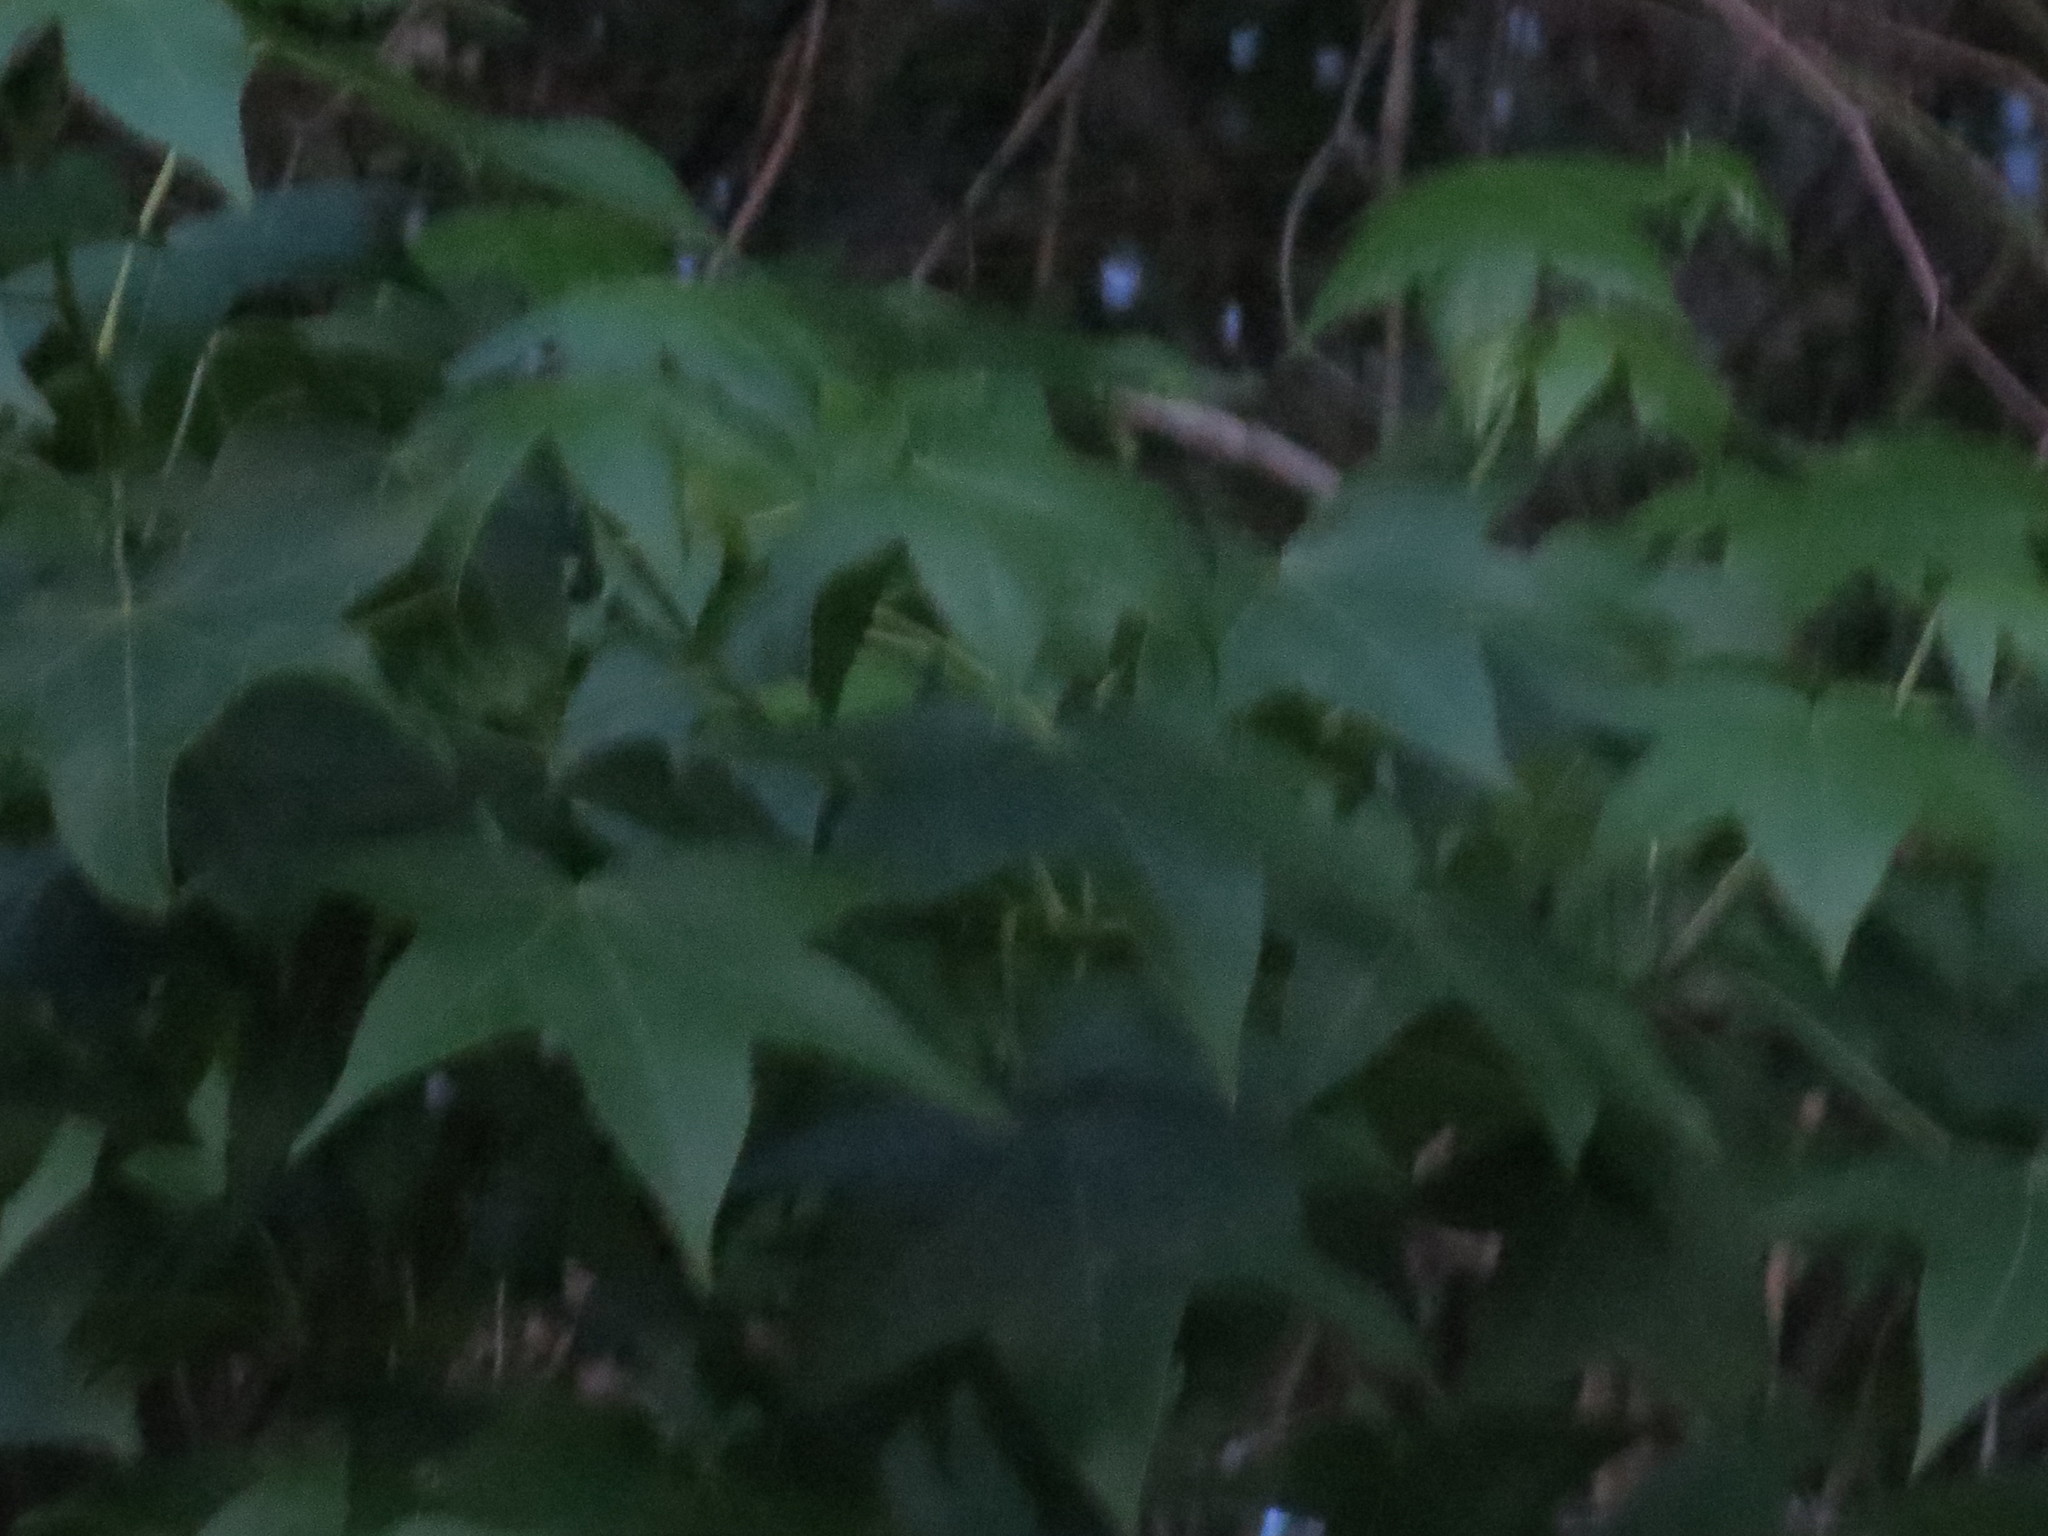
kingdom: Plantae
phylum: Tracheophyta
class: Magnoliopsida
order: Saxifragales
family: Altingiaceae
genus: Liquidambar
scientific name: Liquidambar styraciflua
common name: Sweet gum
